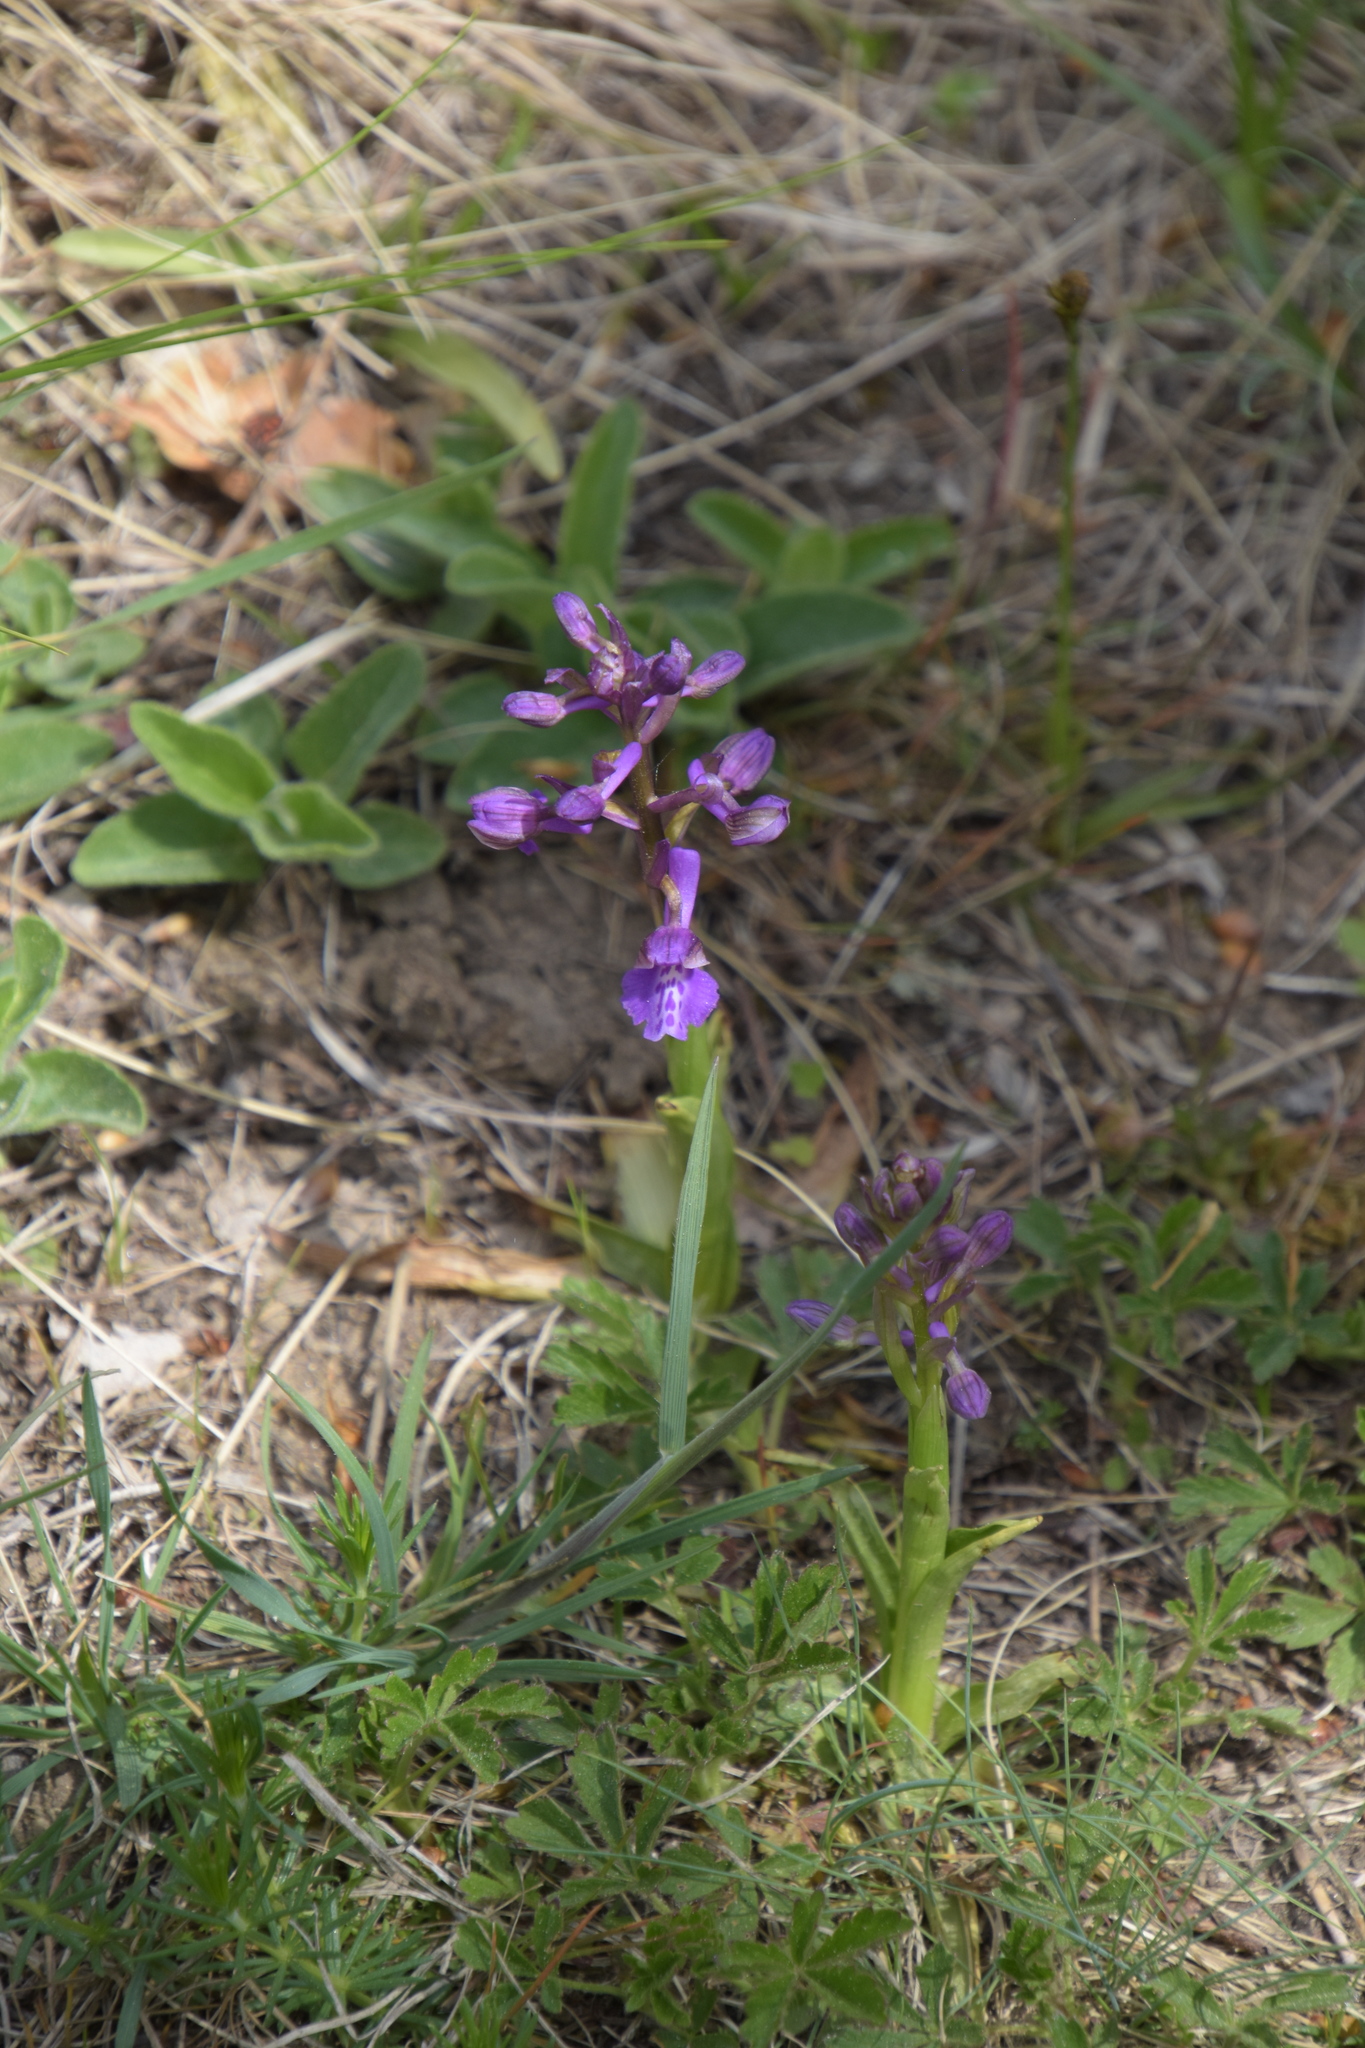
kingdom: Plantae
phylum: Tracheophyta
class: Liliopsida
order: Asparagales
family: Orchidaceae
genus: Anacamptis
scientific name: Anacamptis morio
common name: Green-winged orchid
